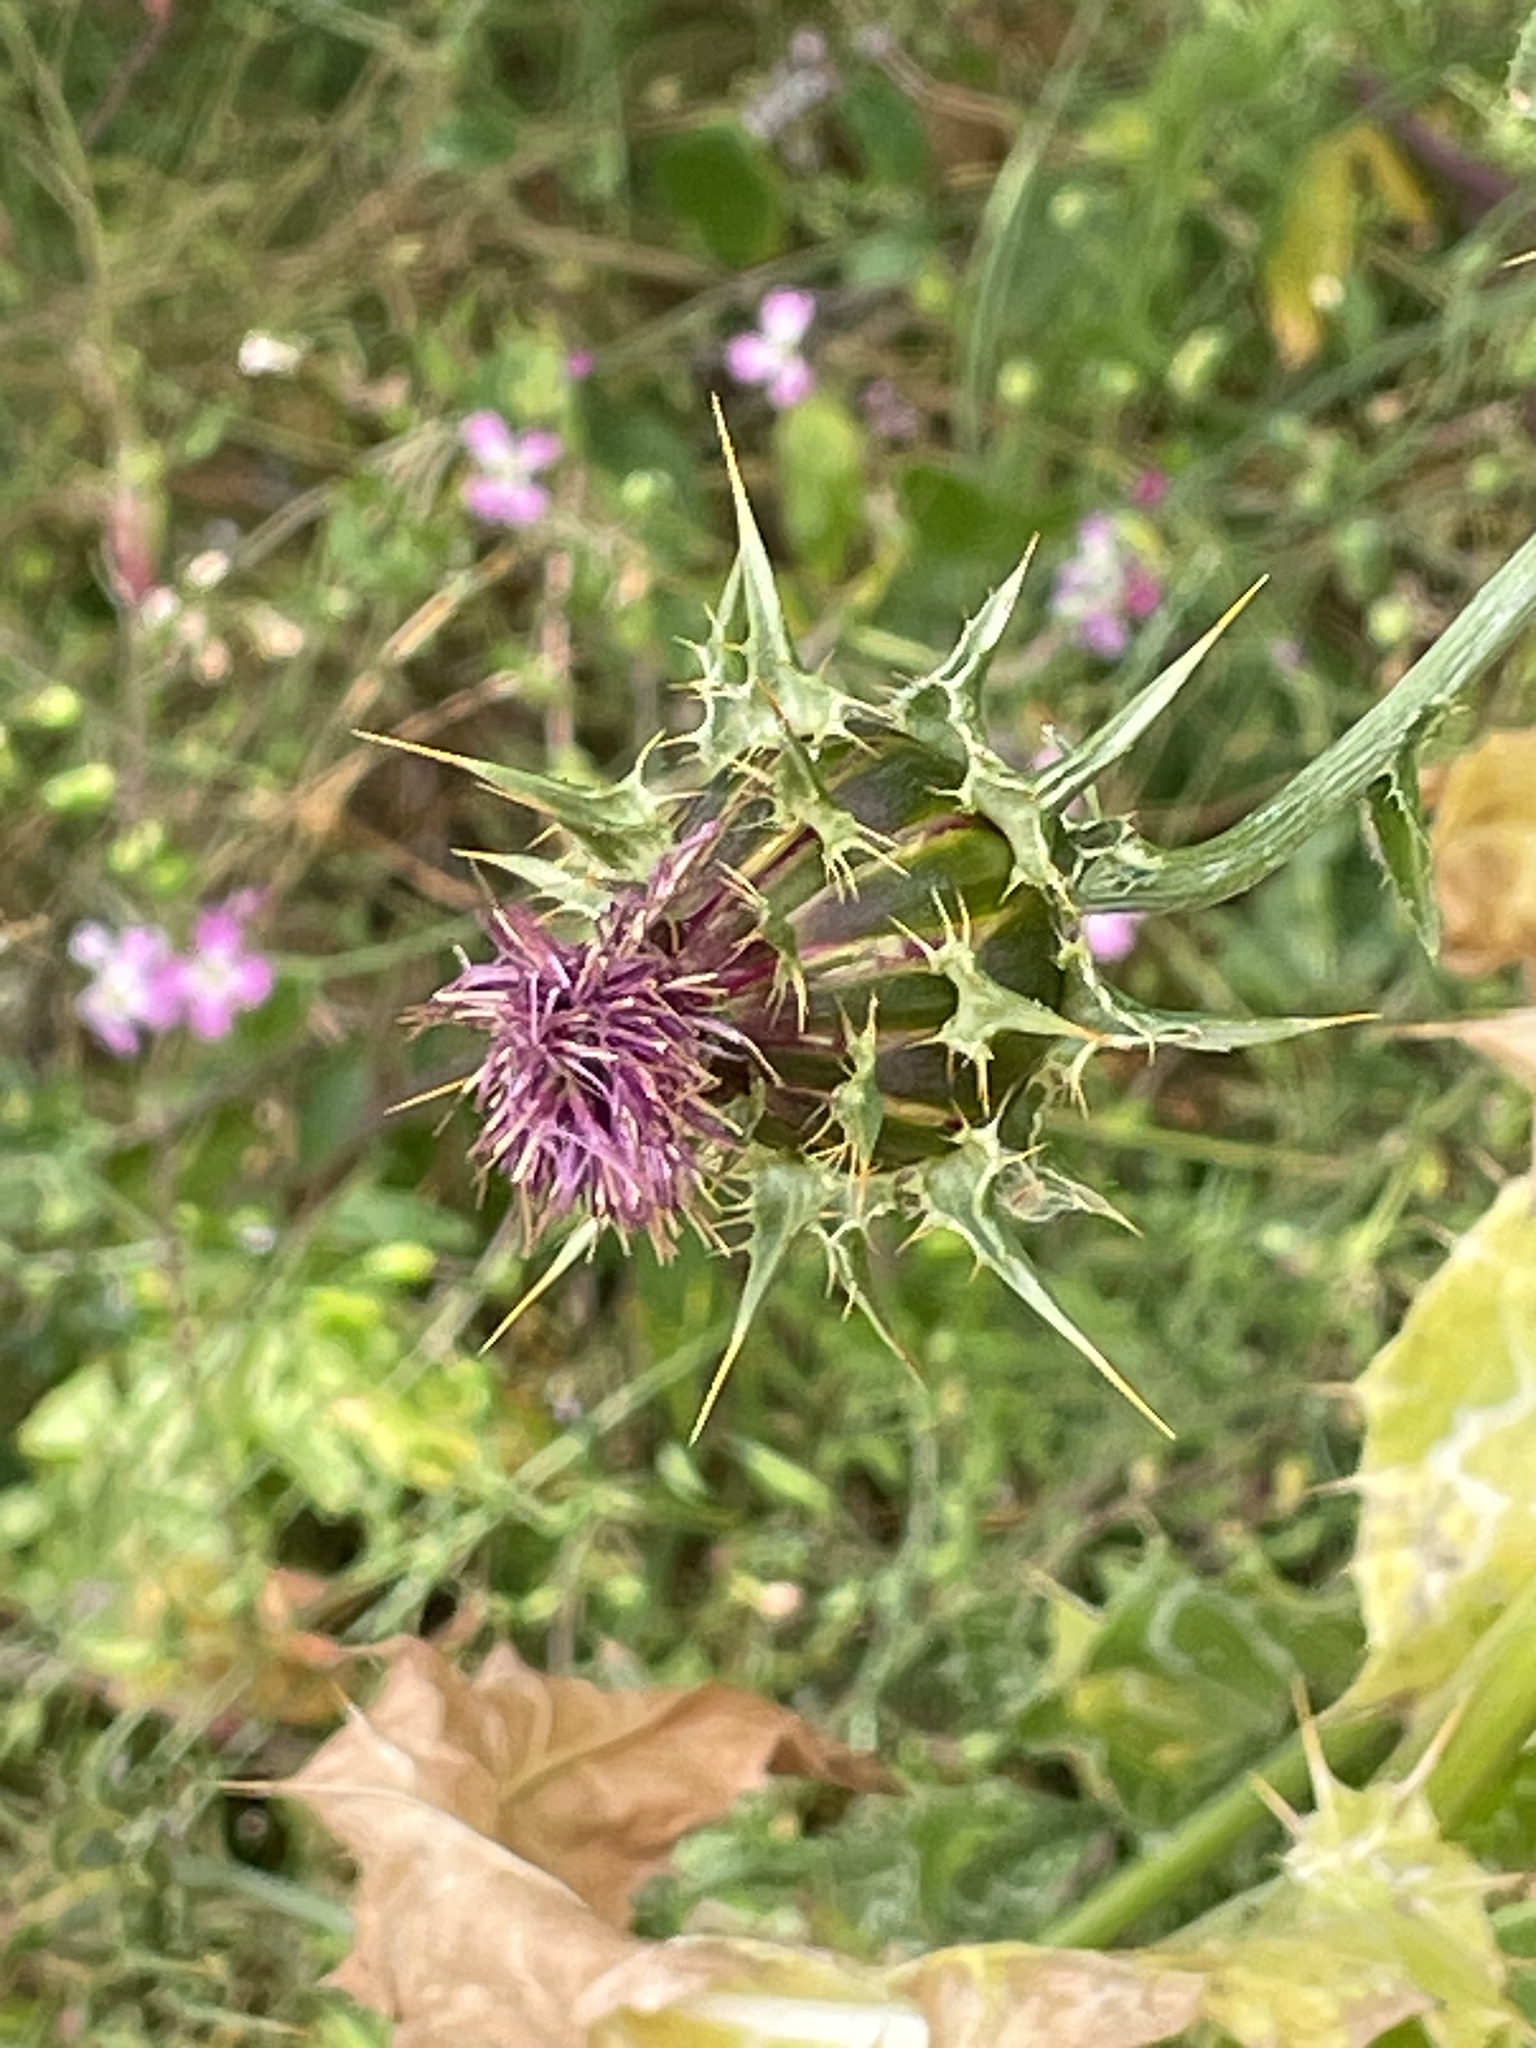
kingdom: Plantae
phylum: Tracheophyta
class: Magnoliopsida
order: Asterales
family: Asteraceae
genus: Silybum
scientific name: Silybum marianum
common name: Milk thistle
